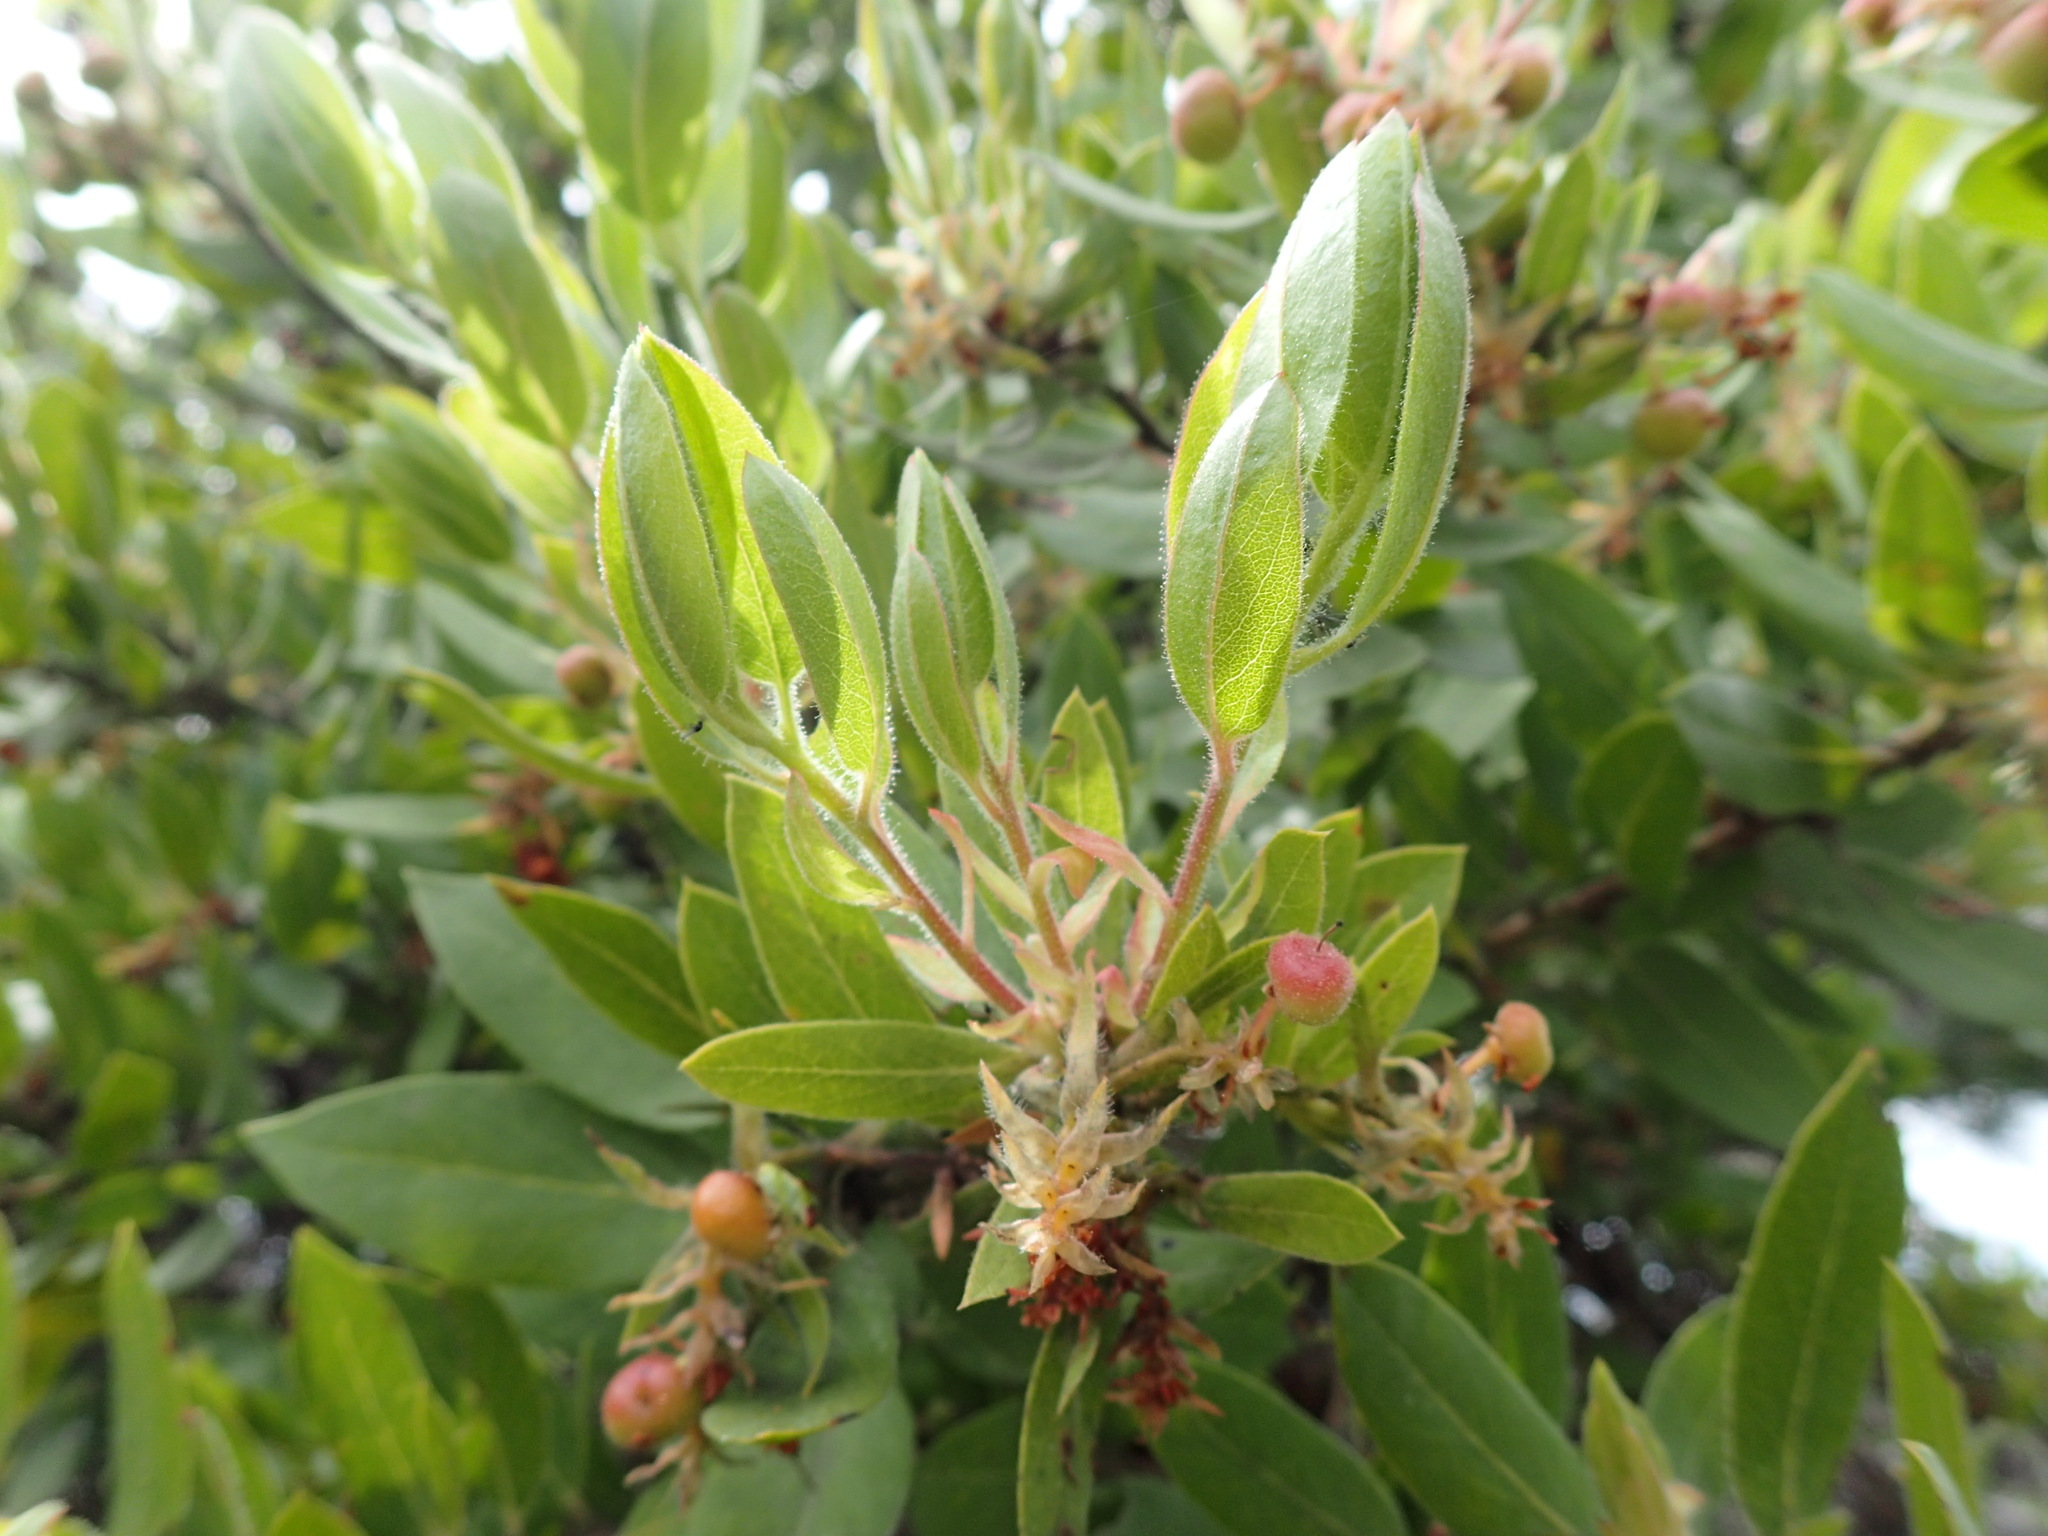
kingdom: Plantae
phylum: Tracheophyta
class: Magnoliopsida
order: Ericales
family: Ericaceae
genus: Arctostaphylos
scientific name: Arctostaphylos virgata
